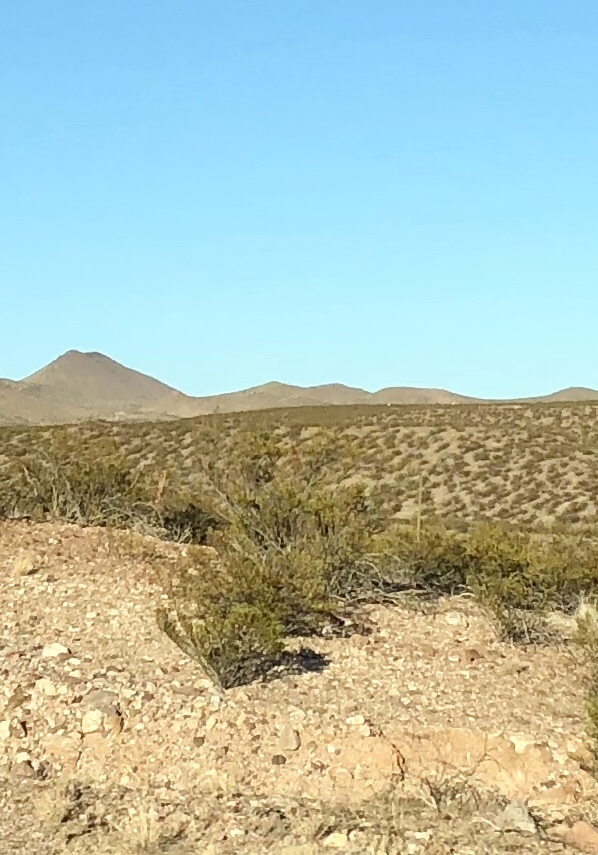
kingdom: Plantae
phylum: Tracheophyta
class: Magnoliopsida
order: Zygophyllales
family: Zygophyllaceae
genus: Larrea
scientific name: Larrea tridentata
